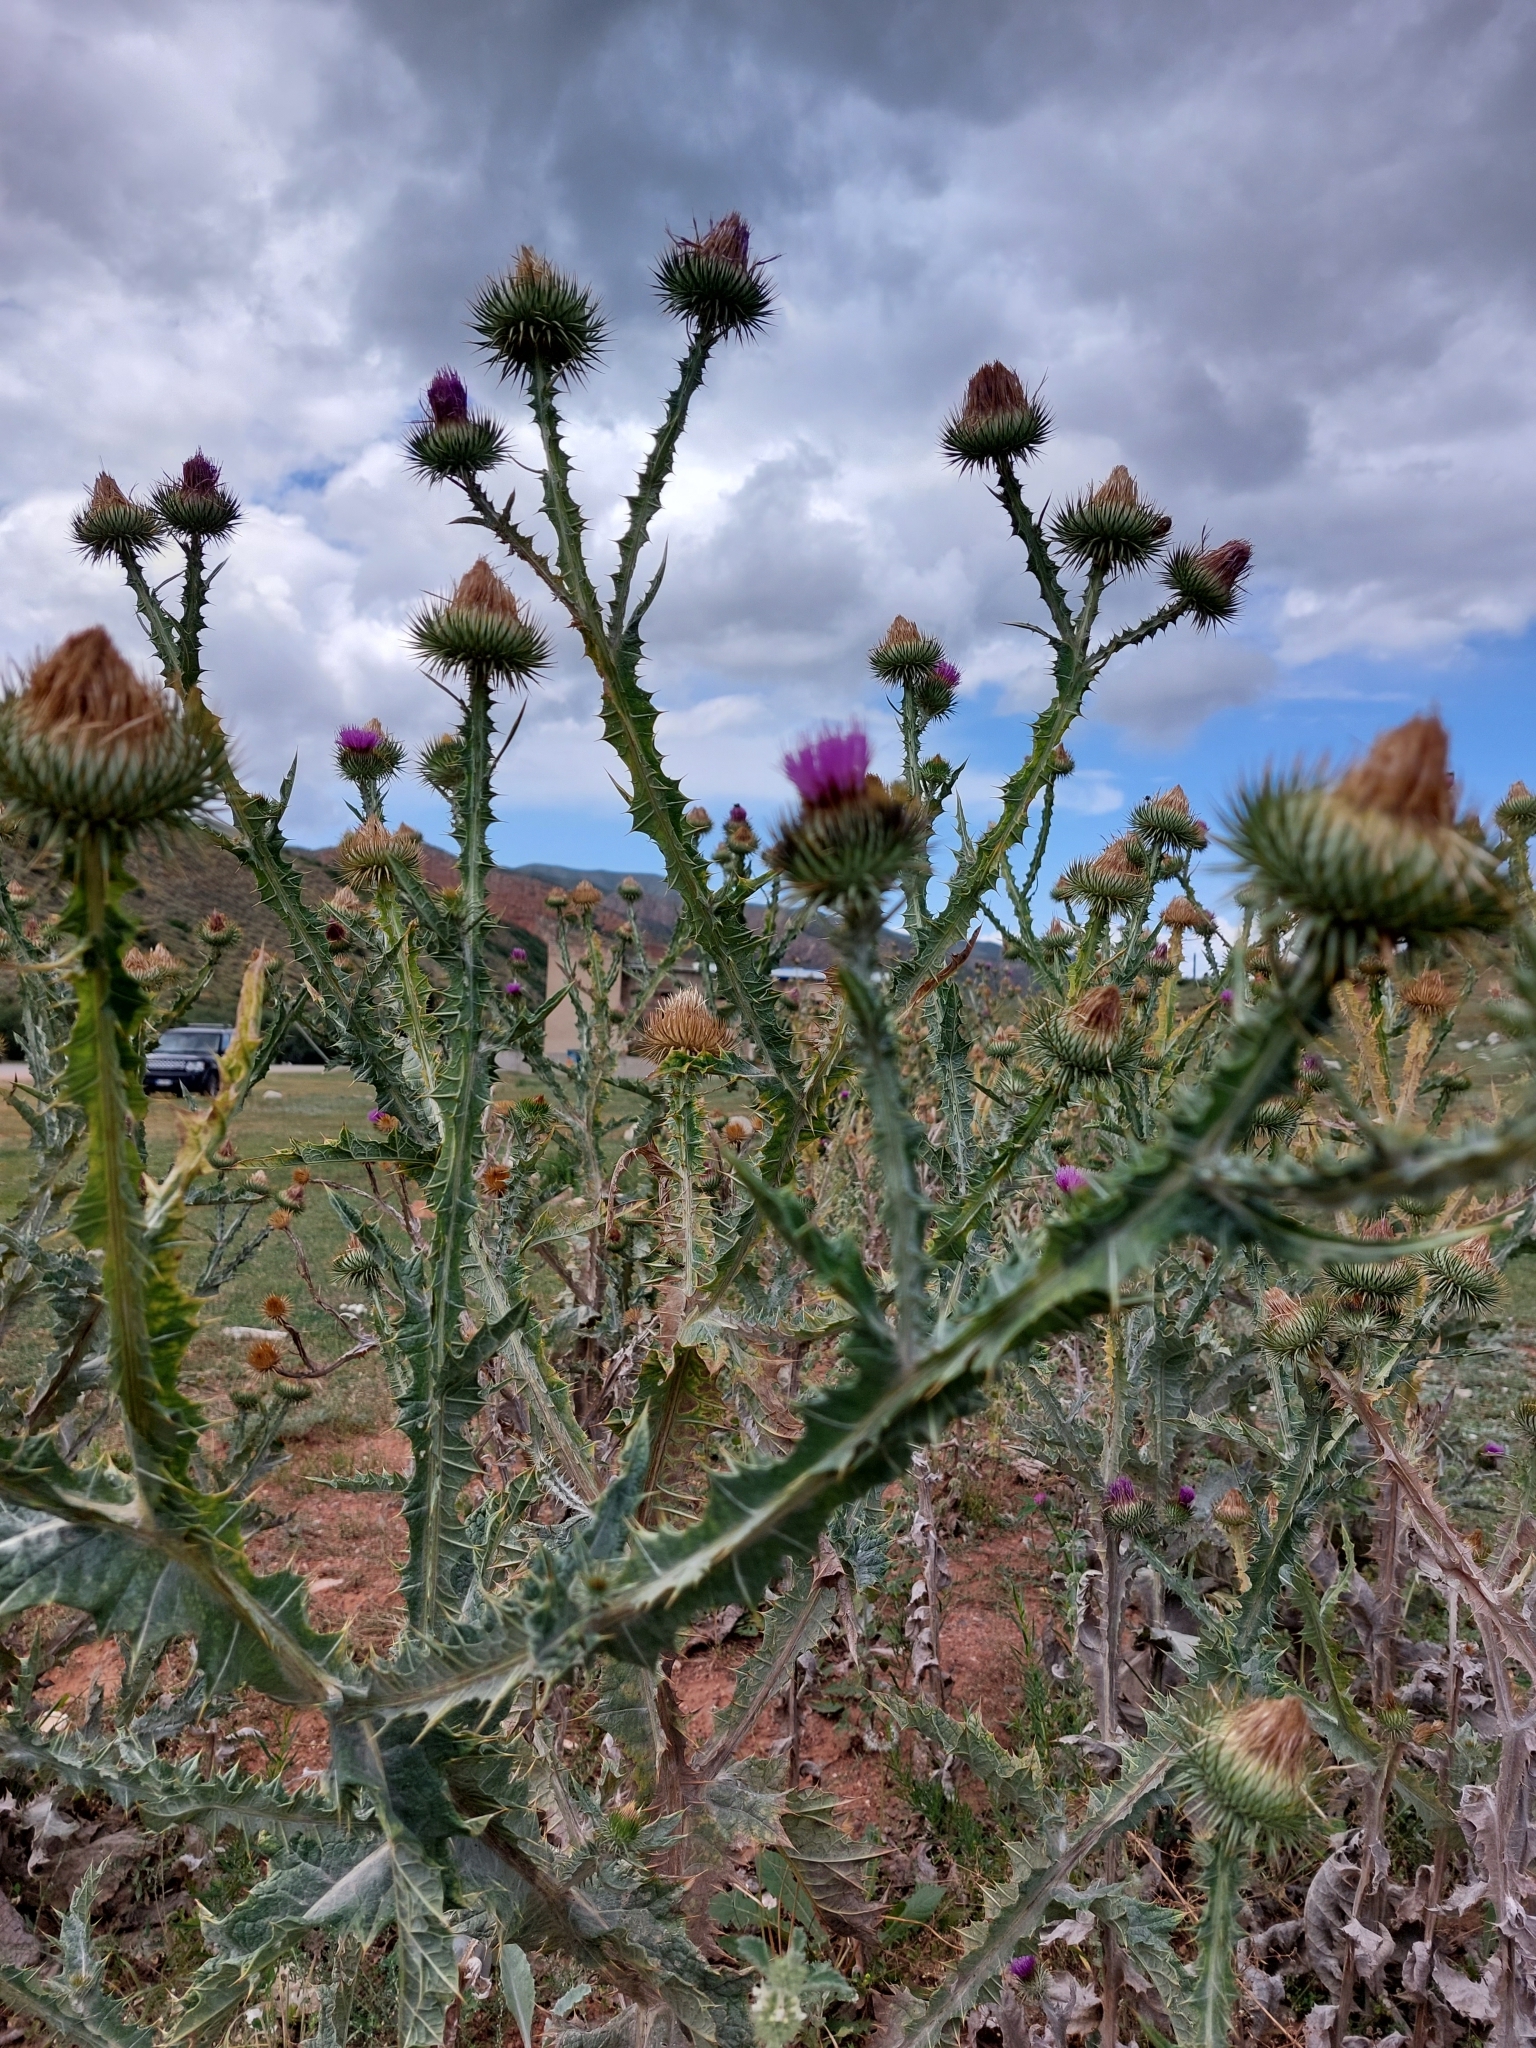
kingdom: Plantae
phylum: Tracheophyta
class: Magnoliopsida
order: Asterales
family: Asteraceae
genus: Onopordum
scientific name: Onopordum acanthium
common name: Scotch thistle
